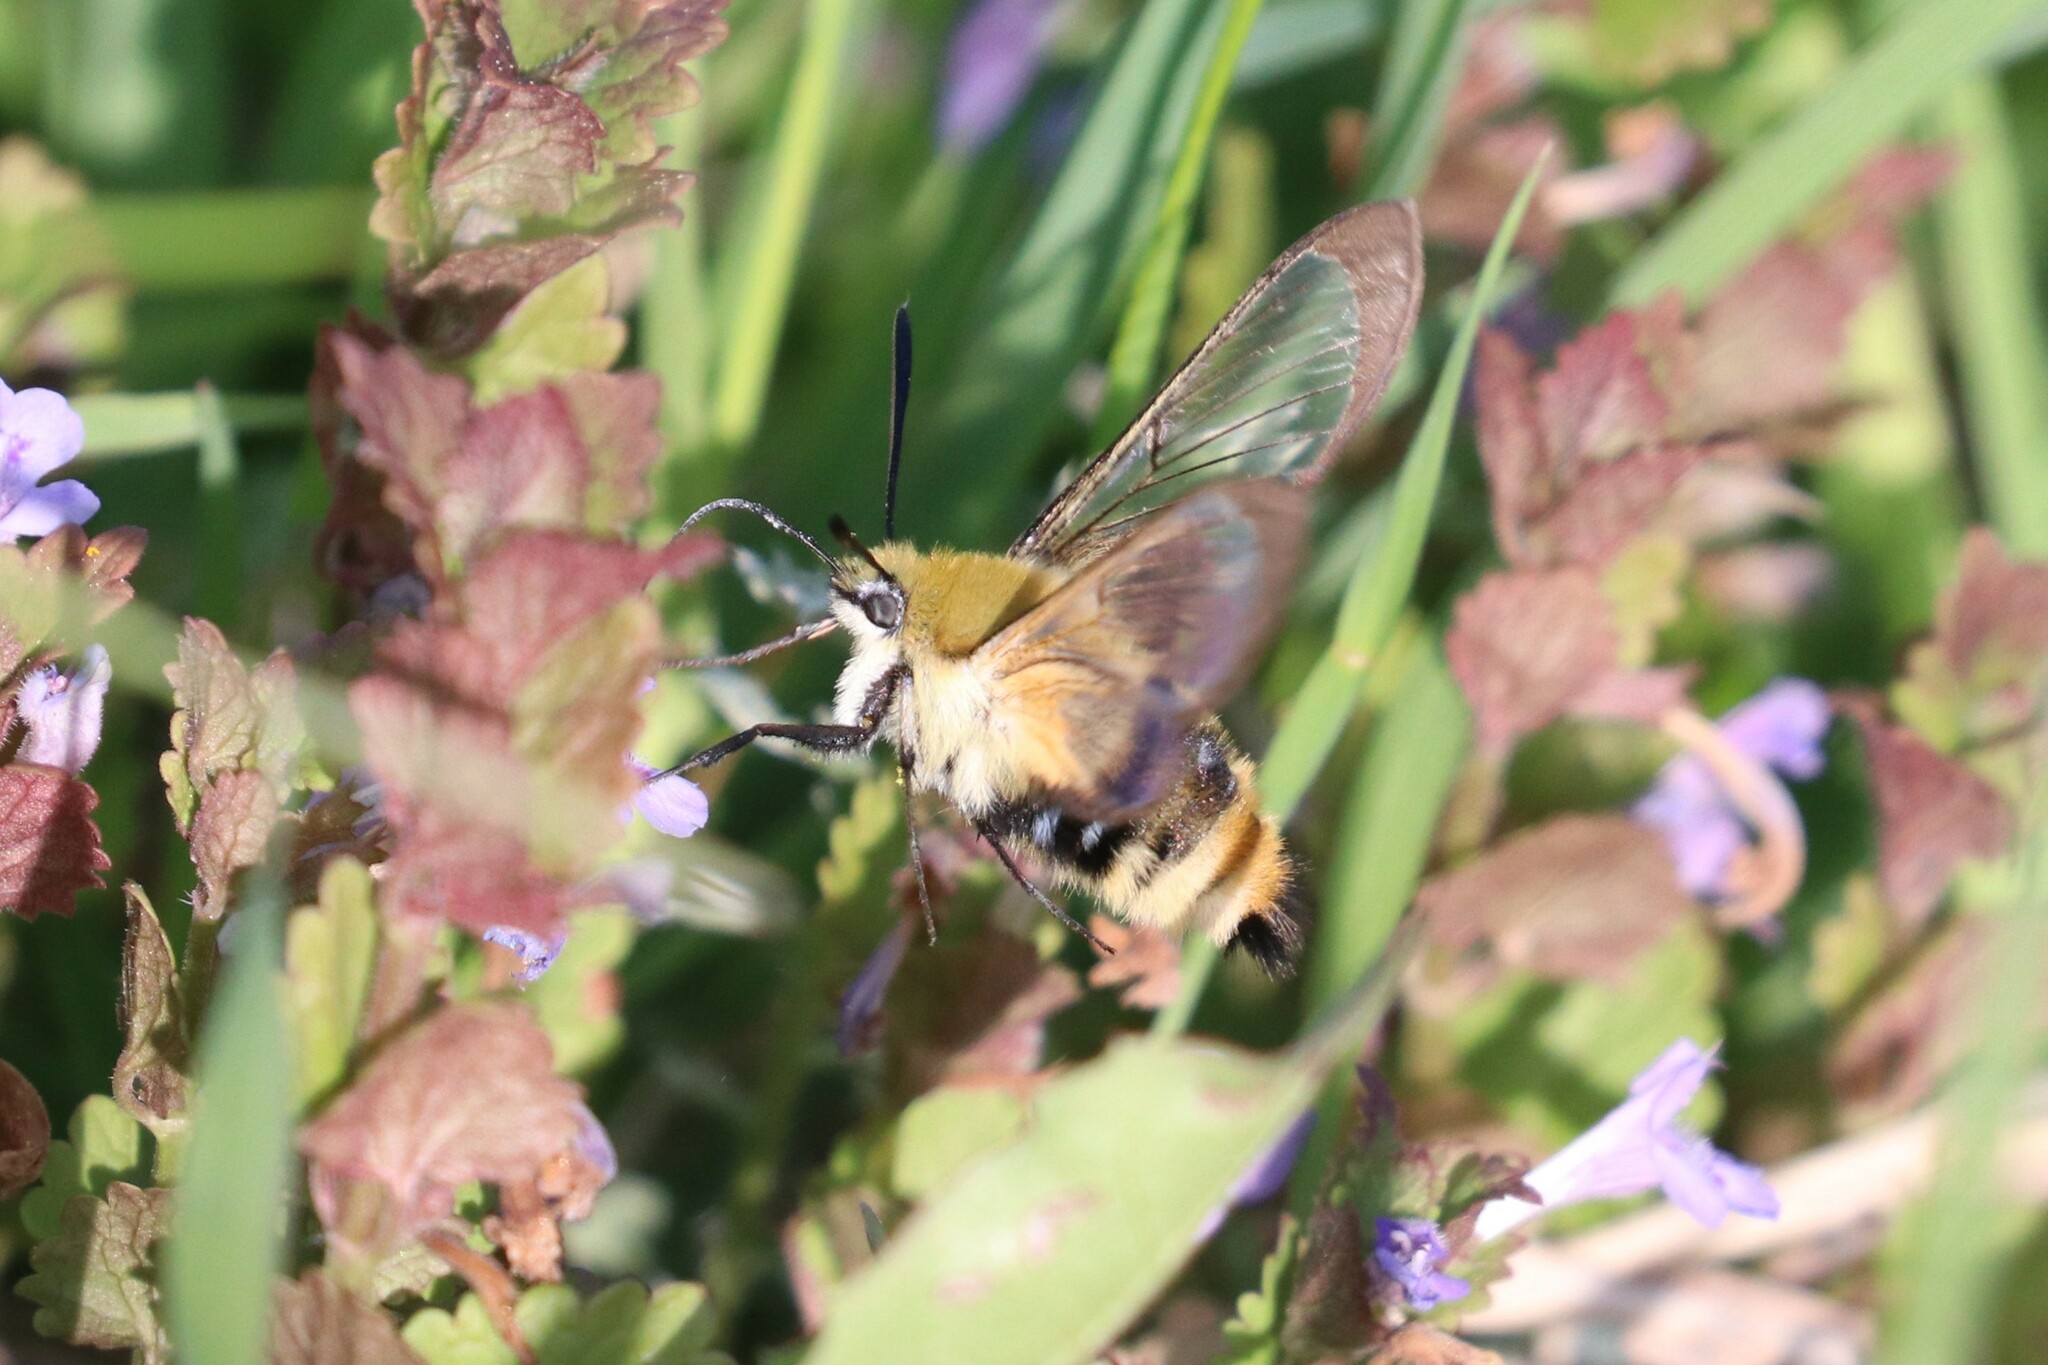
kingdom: Animalia
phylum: Arthropoda
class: Insecta
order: Lepidoptera
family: Sphingidae
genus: Hemaris
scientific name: Hemaris tityus
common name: Narrow-bordered bee hawk-moth
